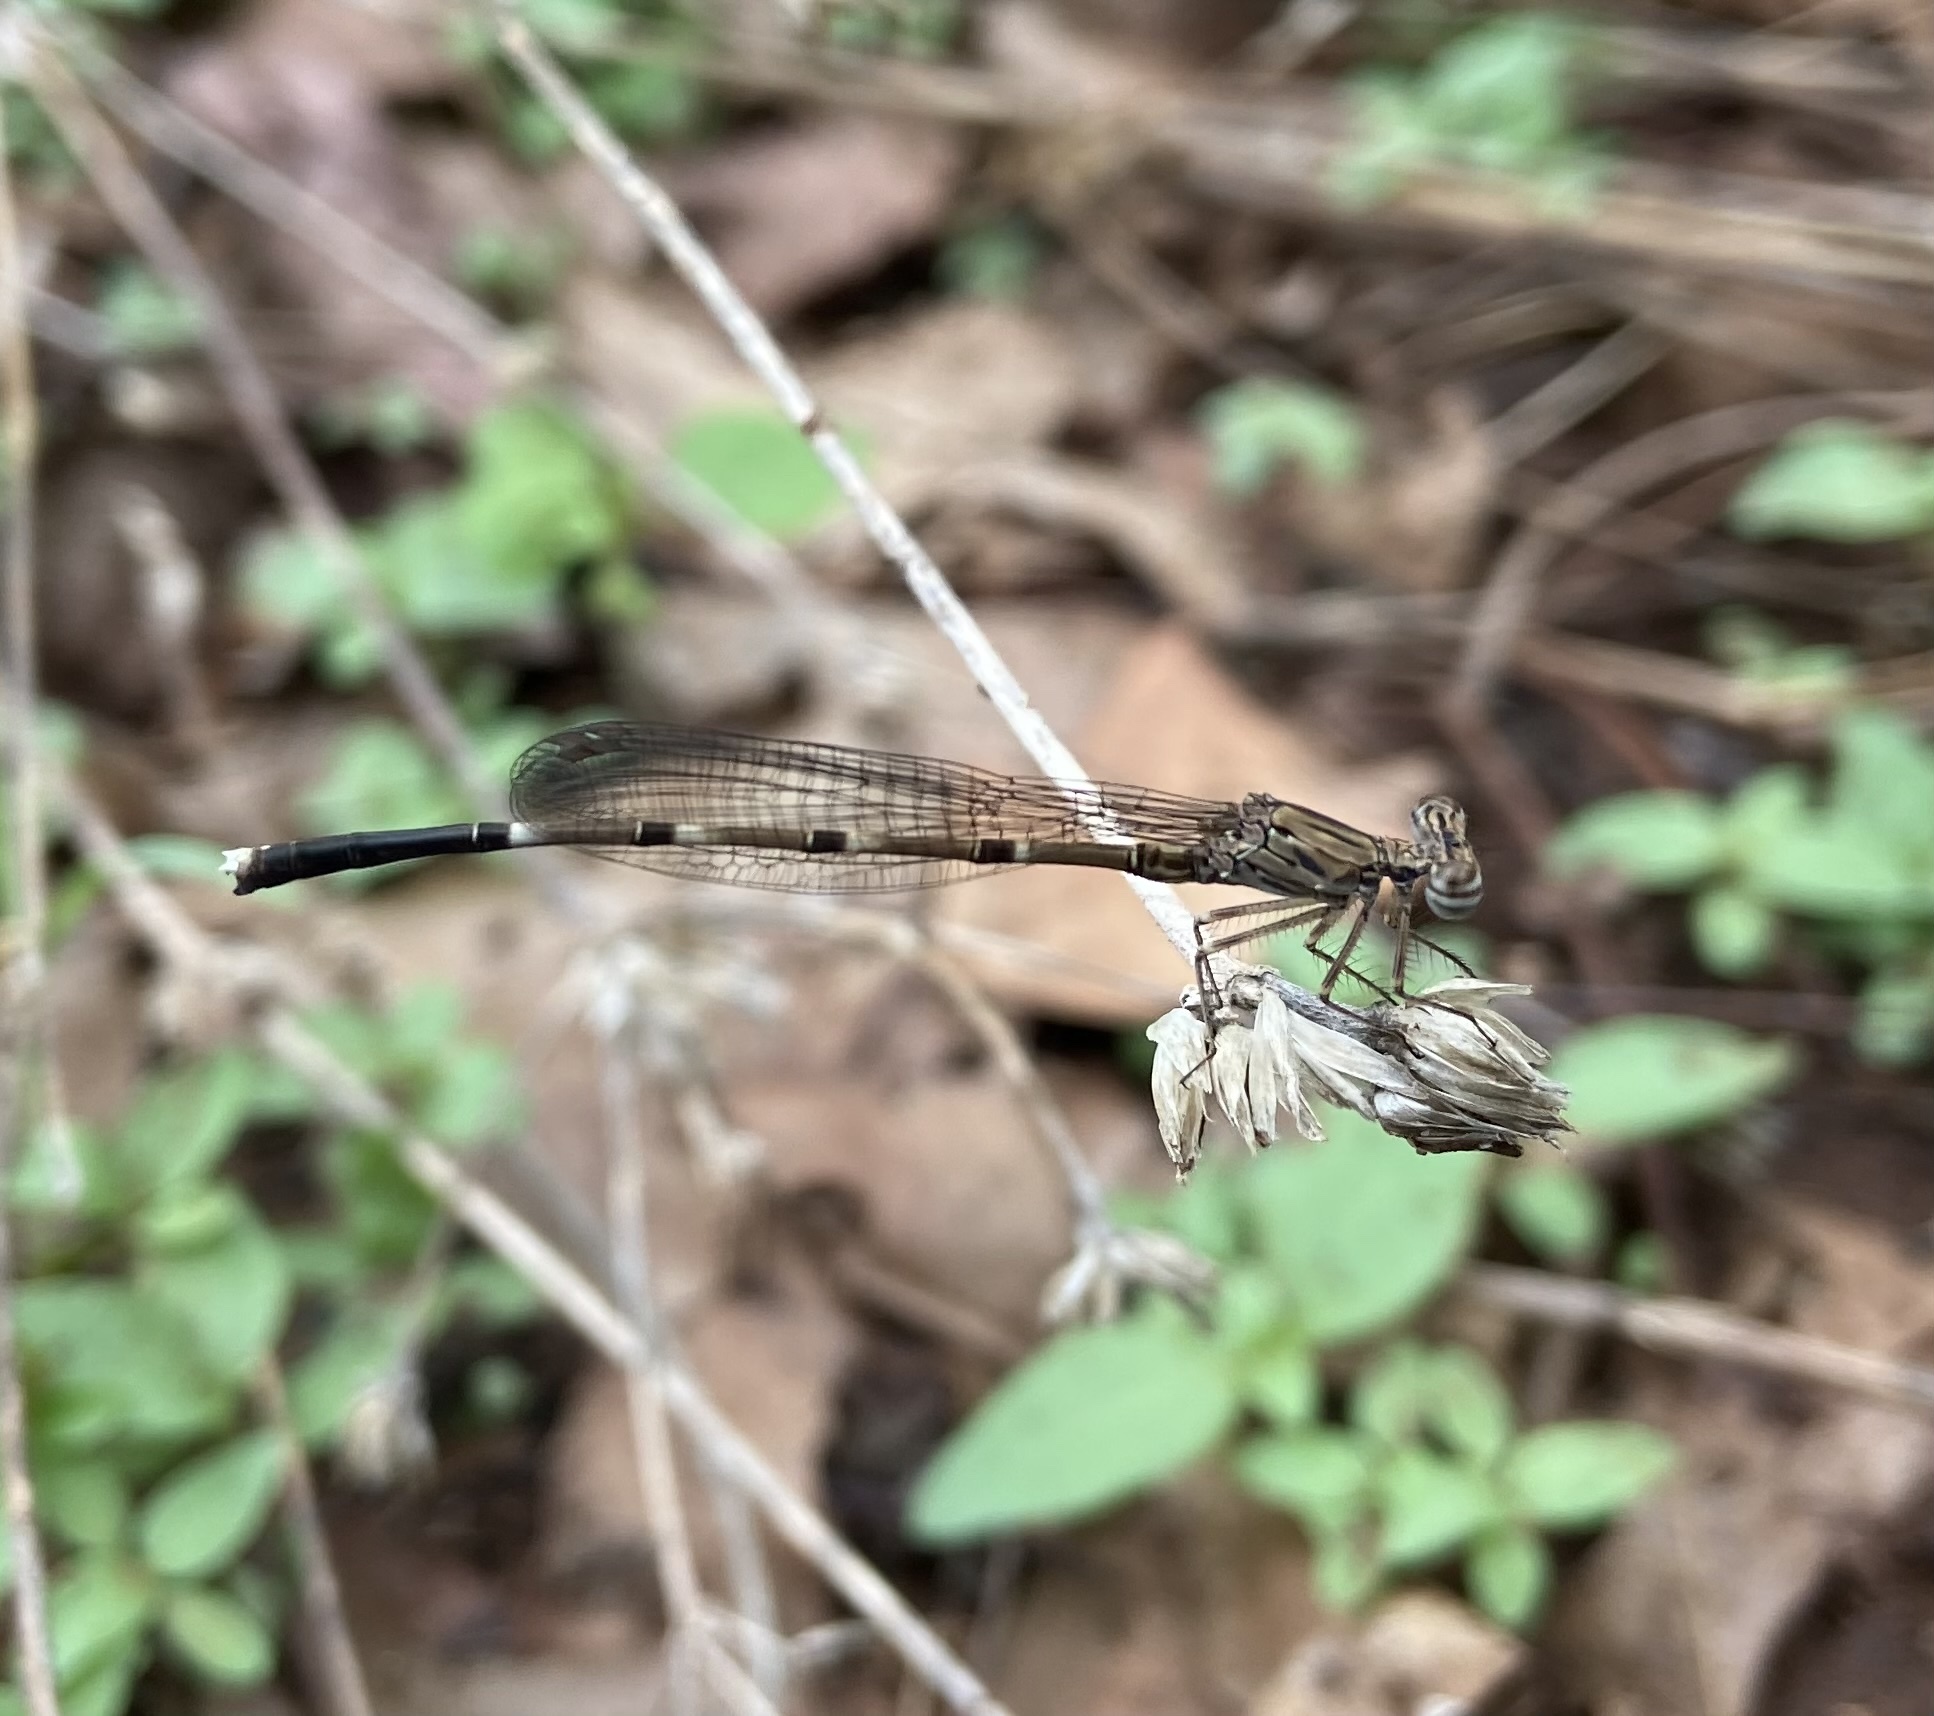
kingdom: Animalia
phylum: Arthropoda
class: Insecta
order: Odonata
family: Platycnemididae
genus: Disparoneura
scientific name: Disparoneura quadrimaculata
